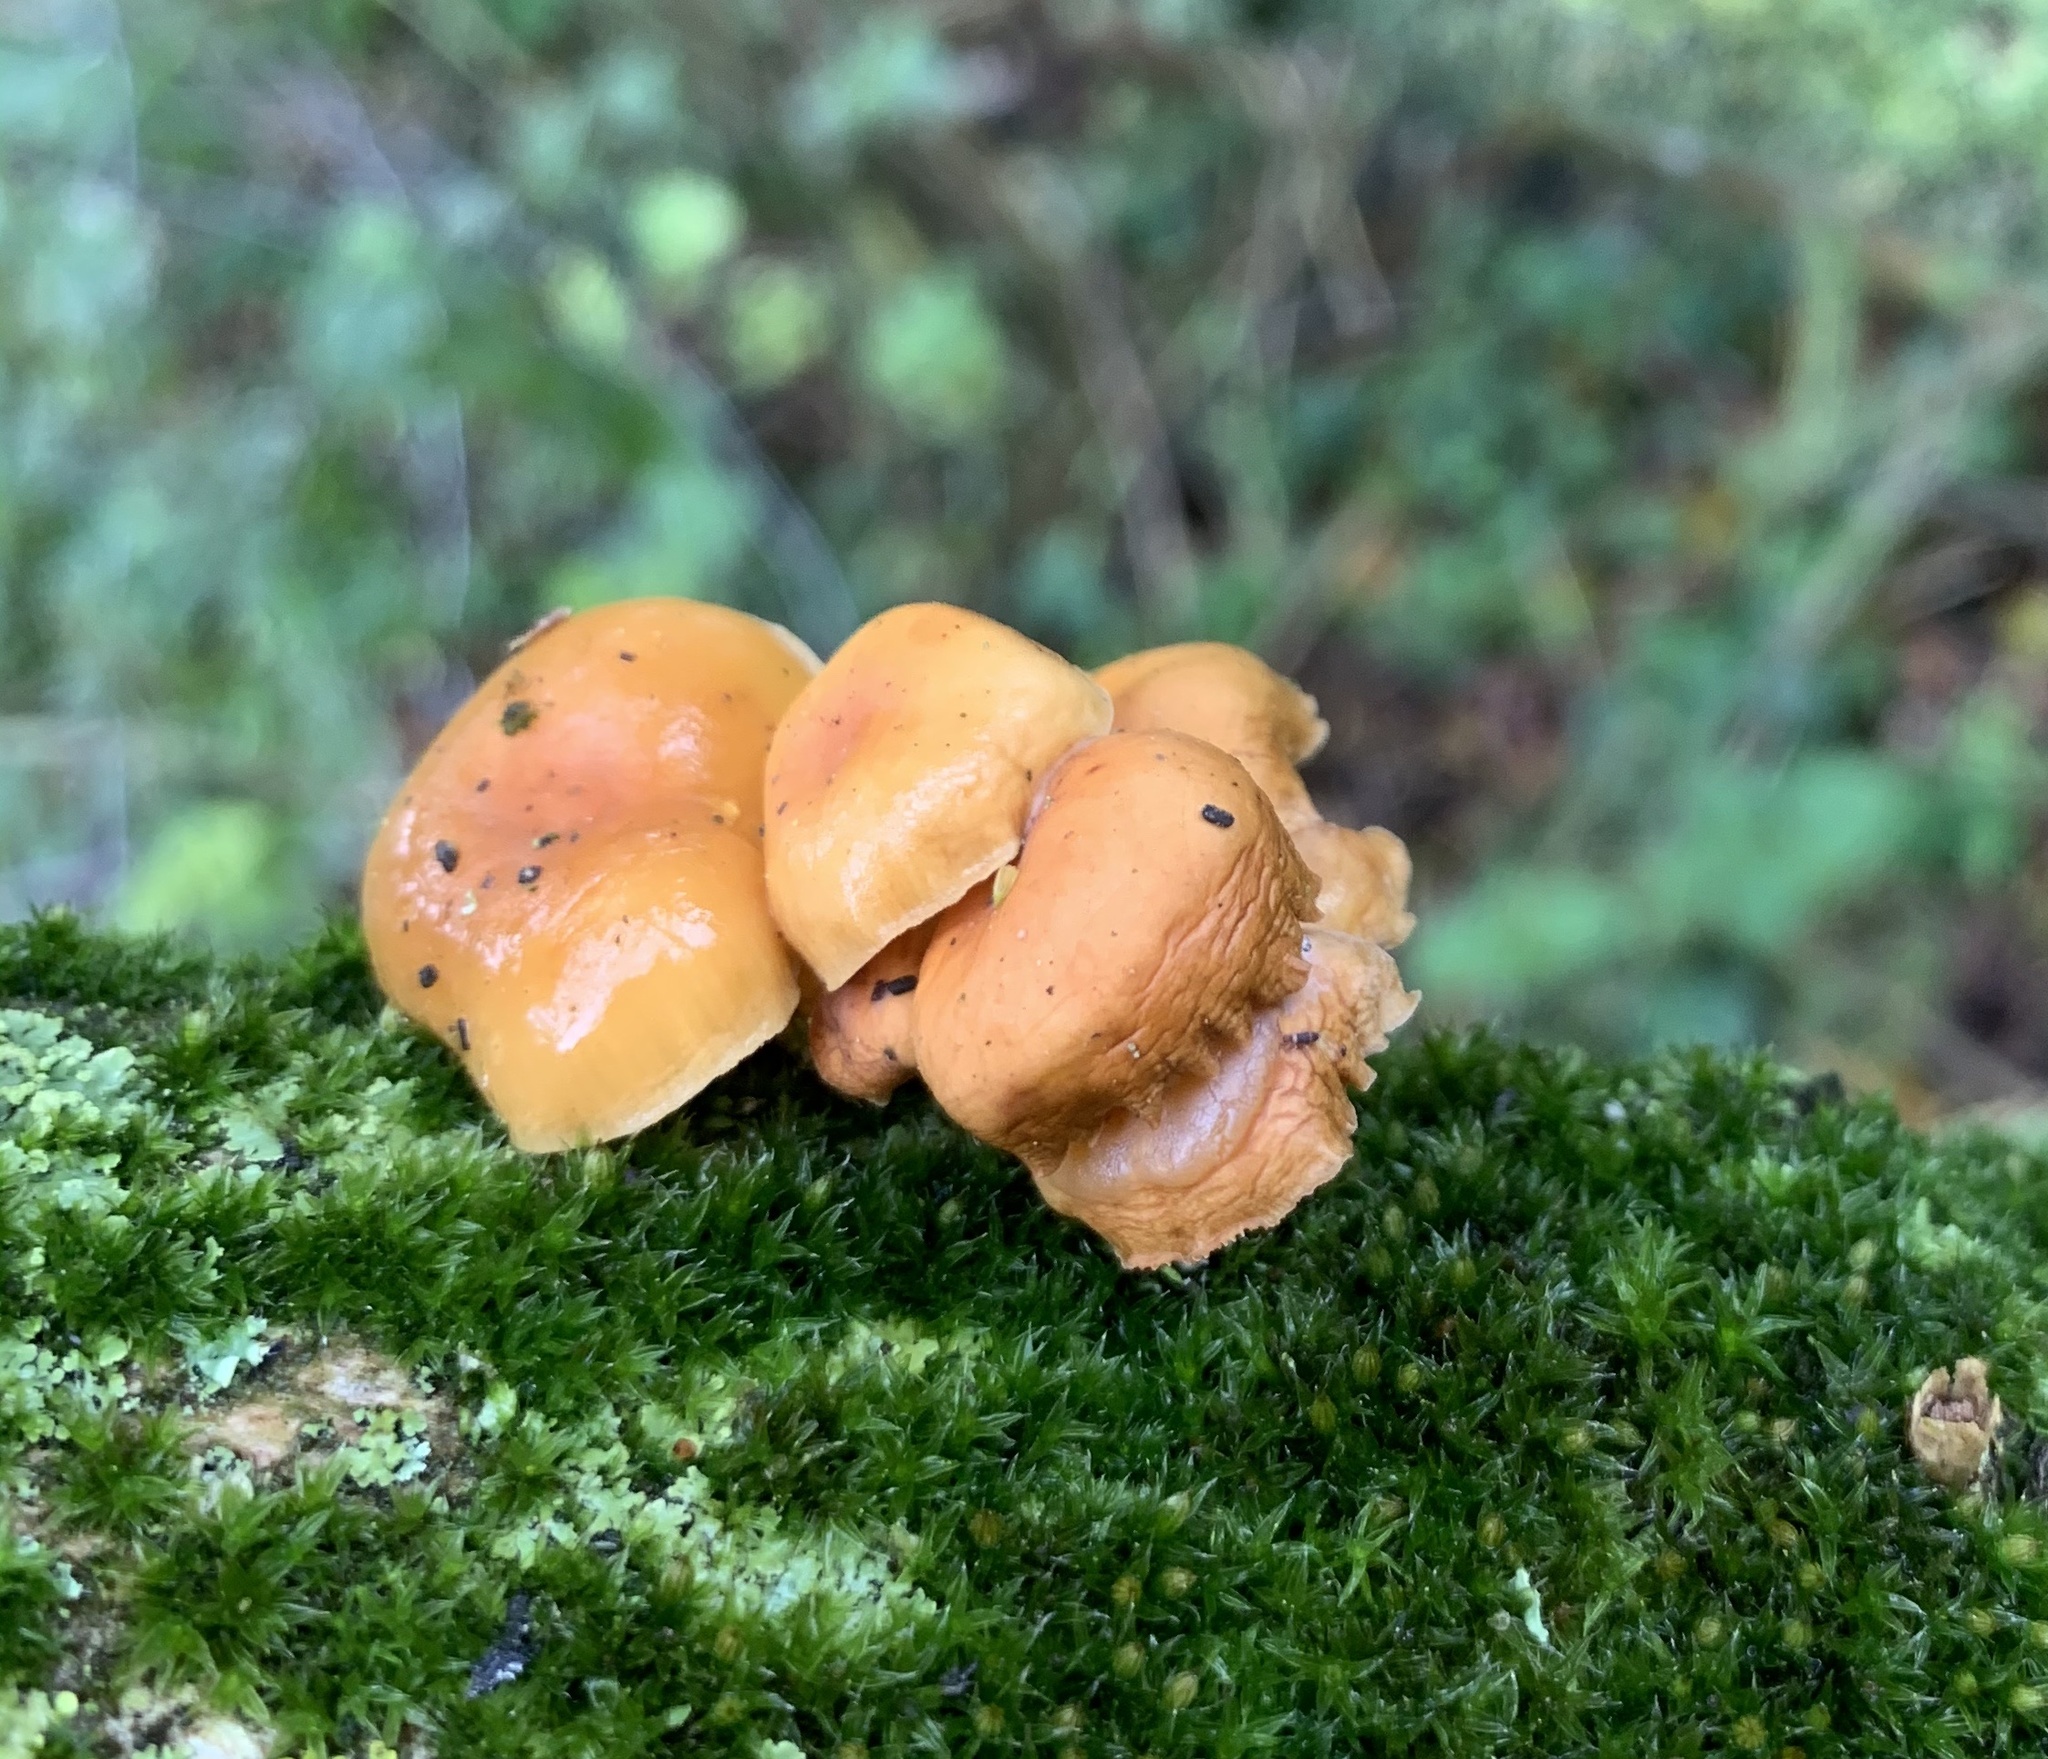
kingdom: Fungi
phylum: Basidiomycota
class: Agaricomycetes
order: Agaricales
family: Physalacriaceae
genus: Flammulina
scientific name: Flammulina
